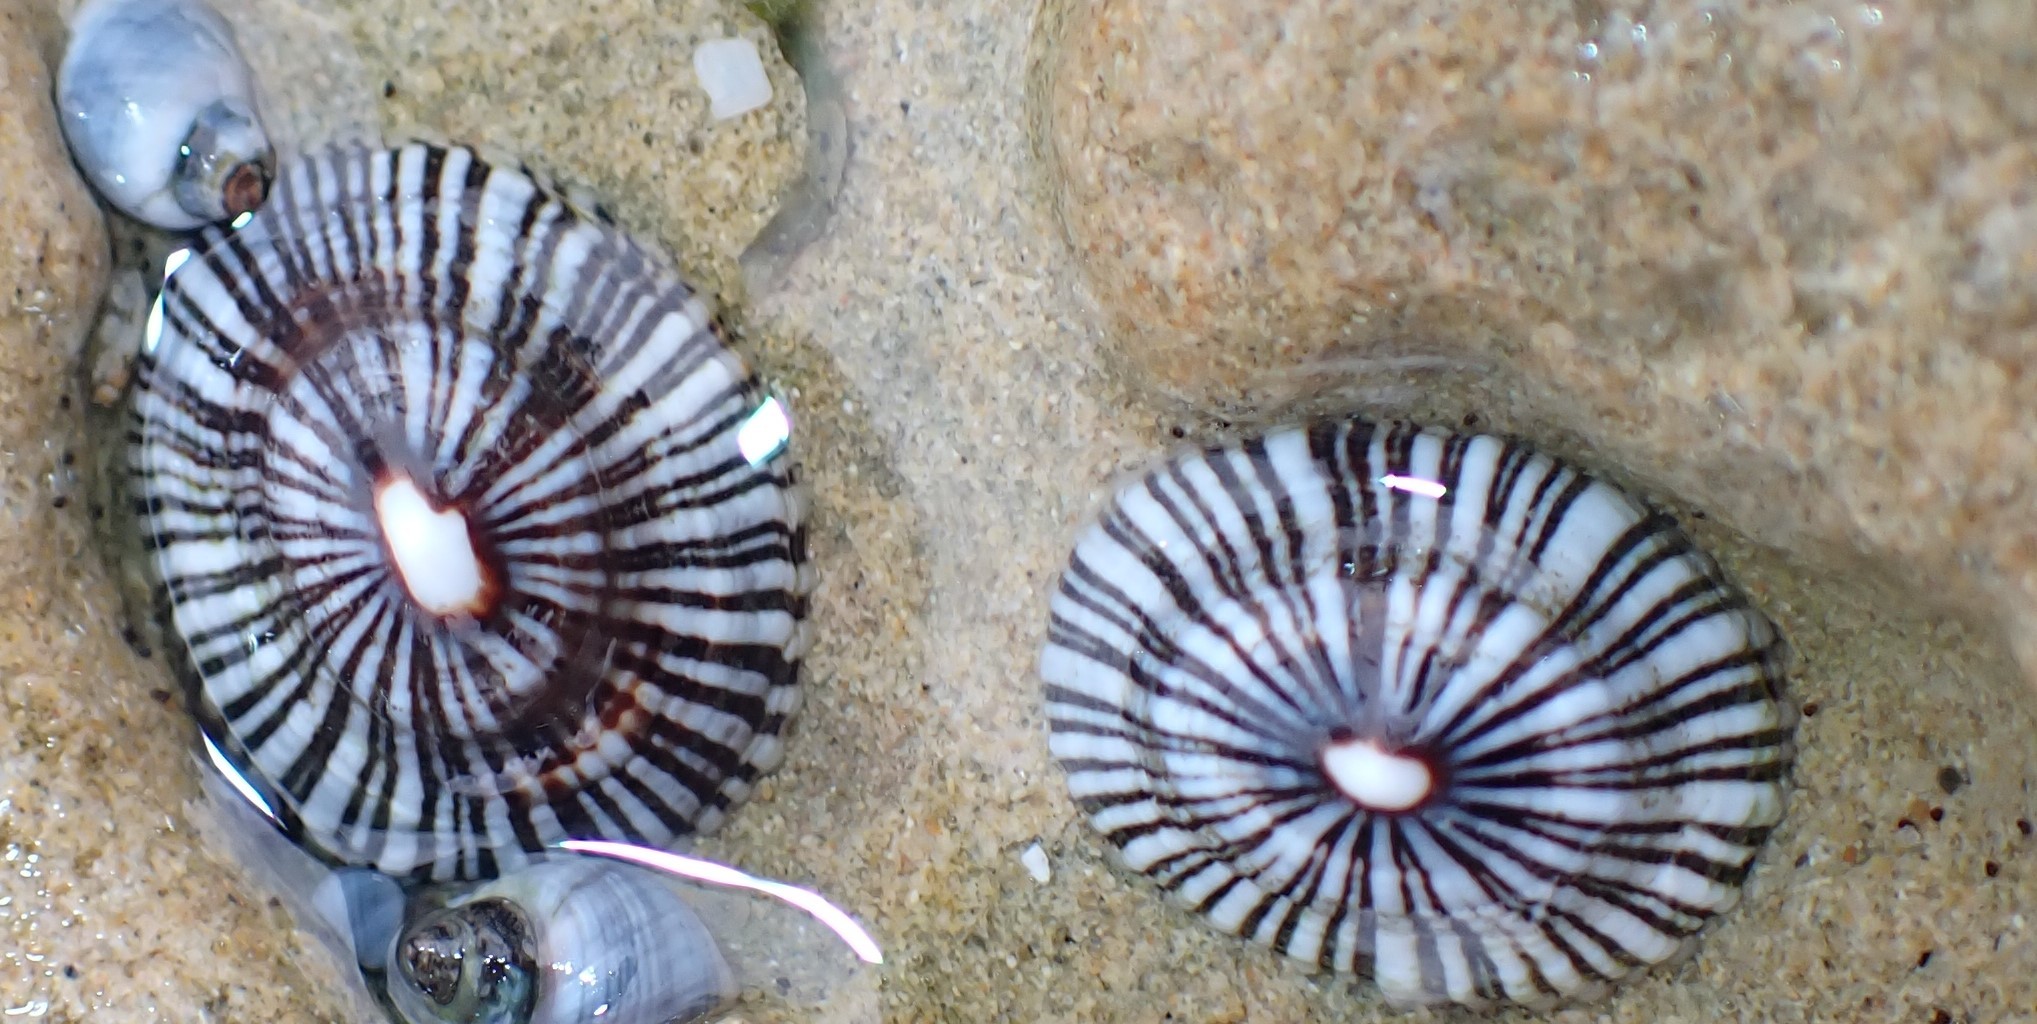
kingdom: Animalia
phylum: Mollusca
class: Gastropoda
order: Siphonariida
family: Siphonariidae
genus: Siphonaria
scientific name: Siphonaria funiculata
